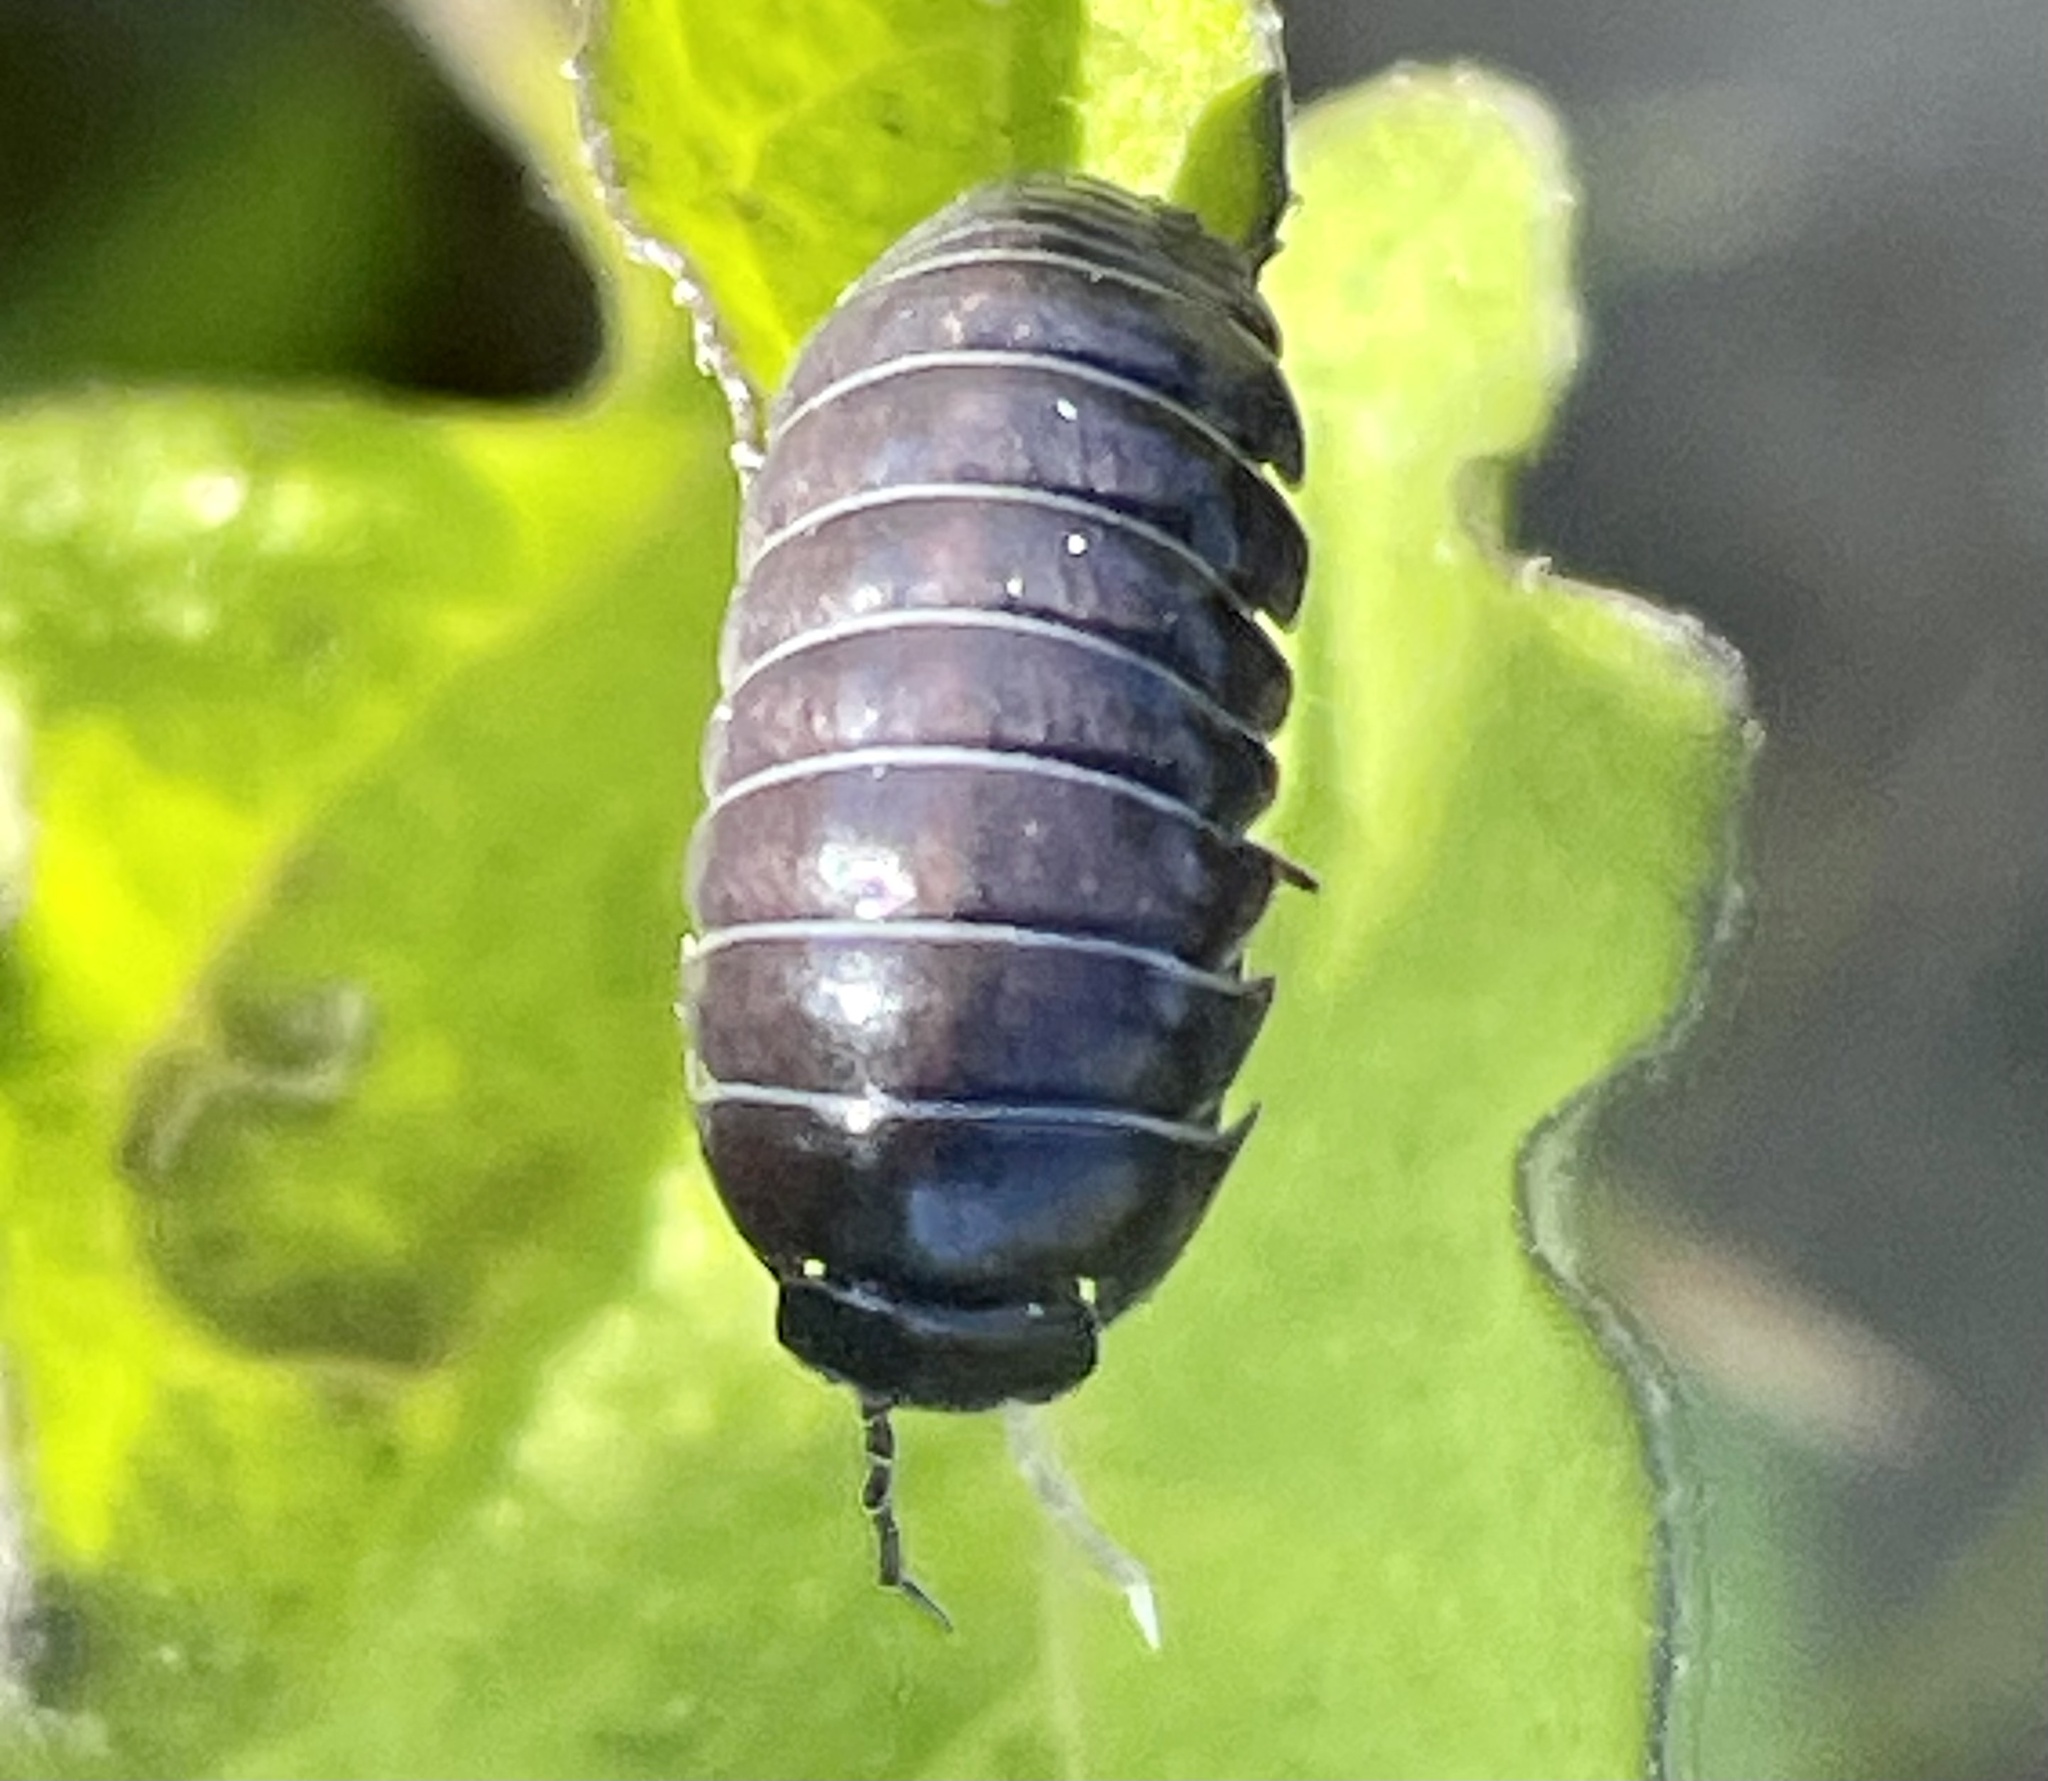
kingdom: Animalia
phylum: Arthropoda
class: Malacostraca
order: Isopoda
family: Armadillidiidae
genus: Armadillidium
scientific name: Armadillidium vulgare
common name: Common pill woodlouse
